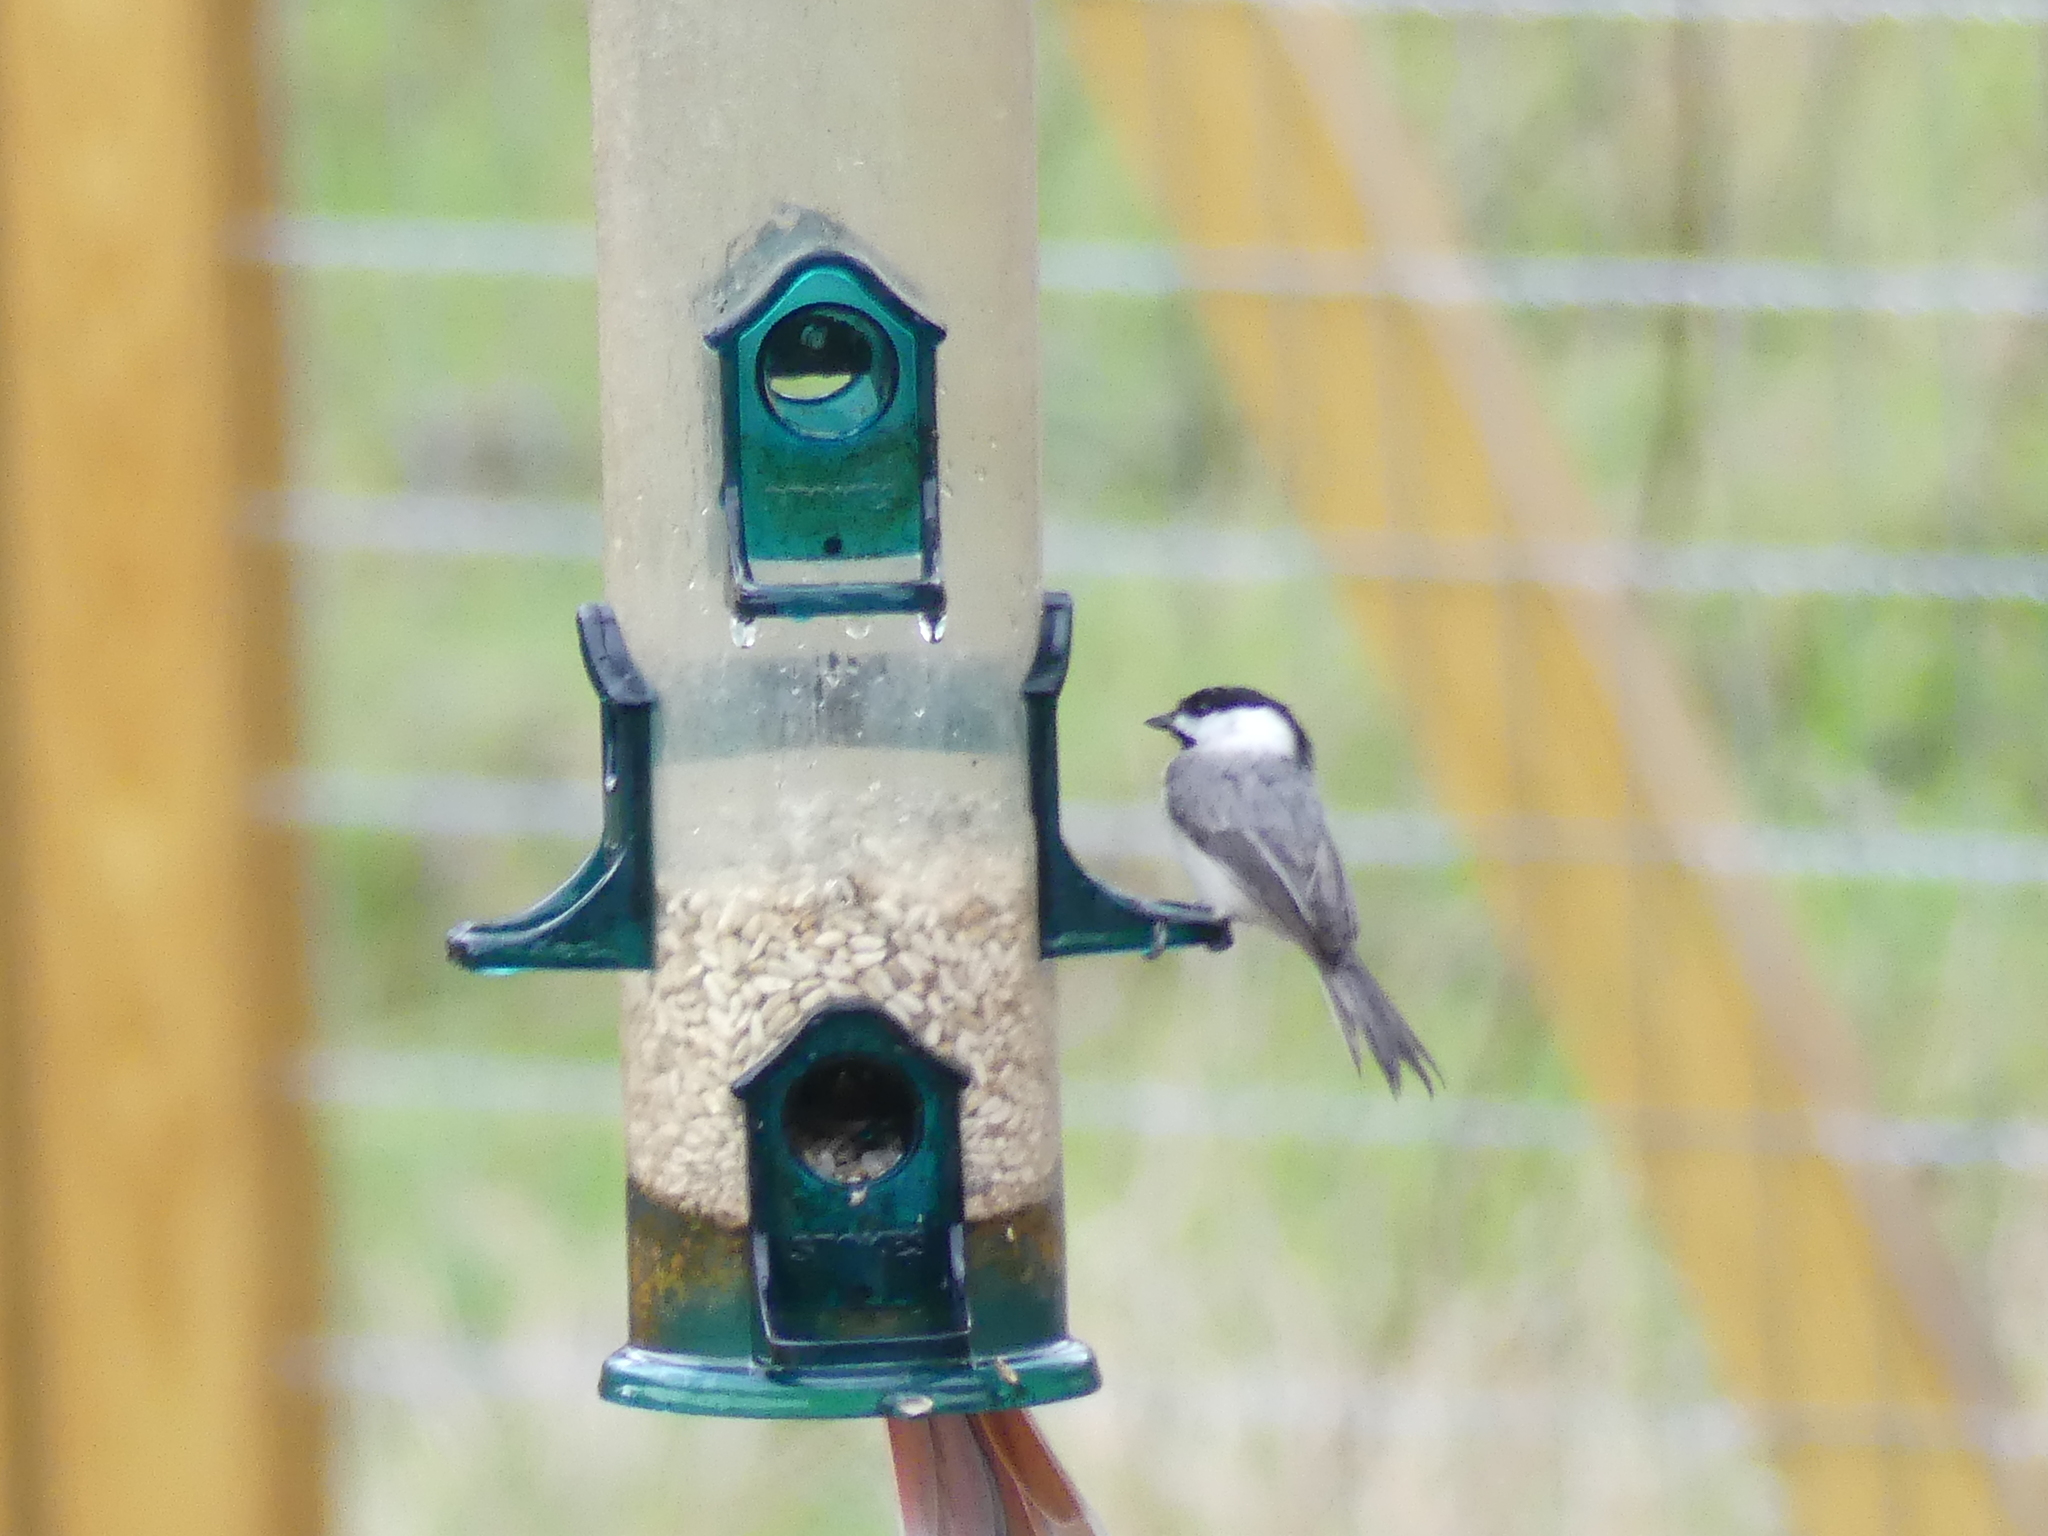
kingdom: Animalia
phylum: Chordata
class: Aves
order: Passeriformes
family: Paridae
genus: Poecile
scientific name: Poecile carolinensis
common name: Carolina chickadee
